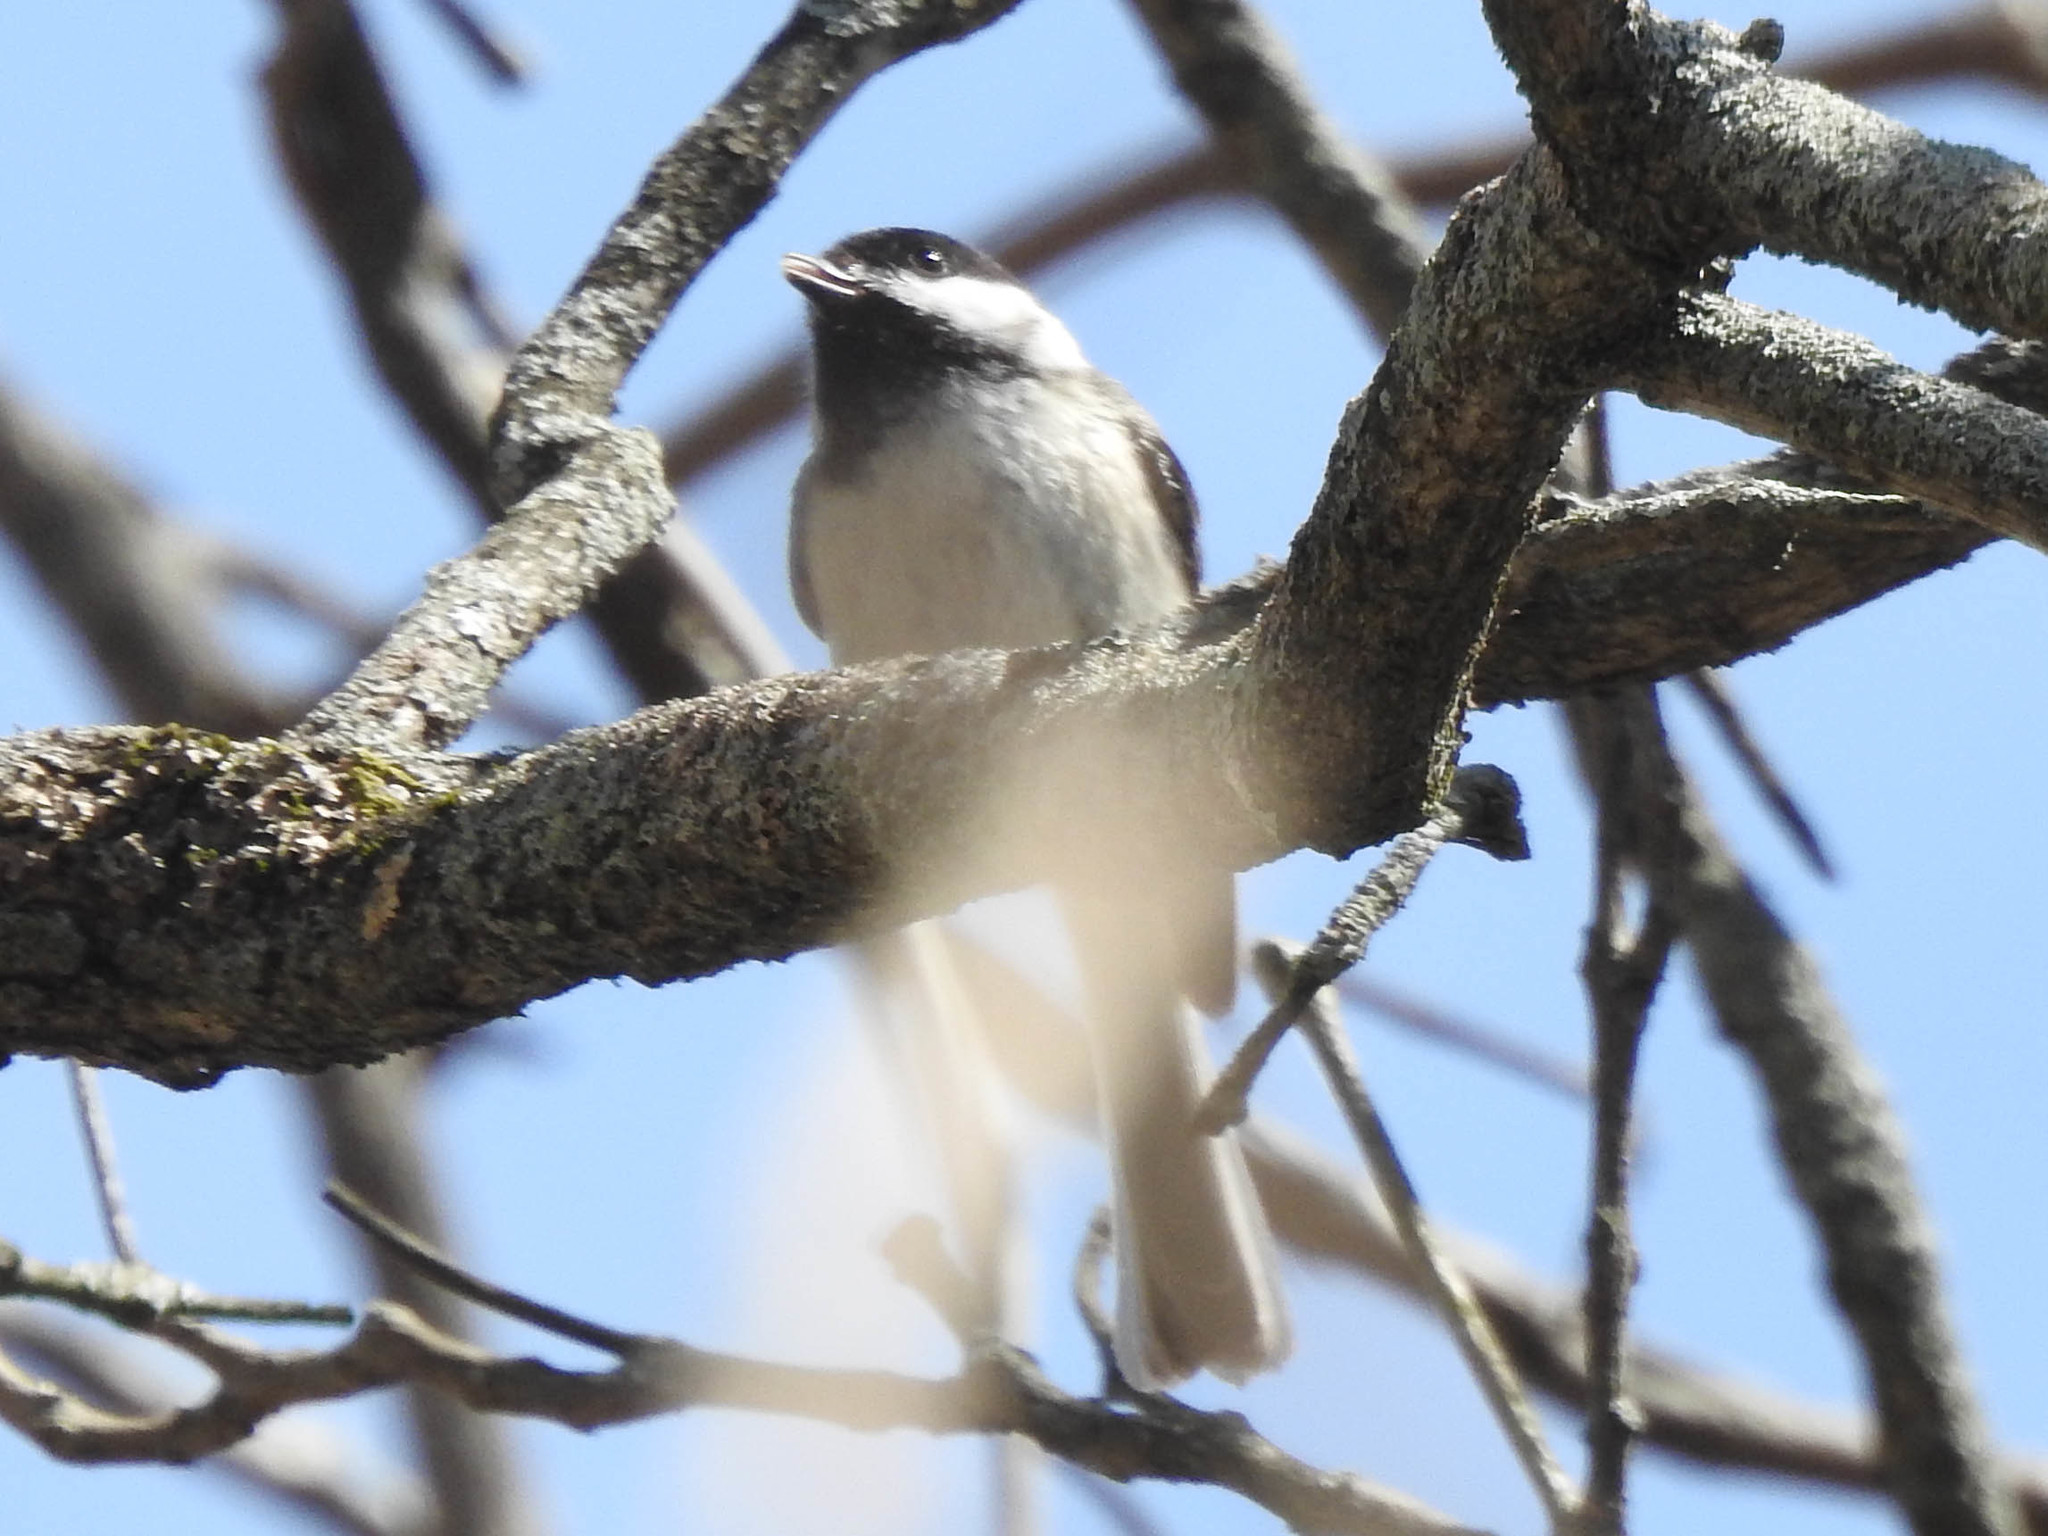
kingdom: Animalia
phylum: Chordata
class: Aves
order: Passeriformes
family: Paridae
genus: Poecile
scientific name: Poecile atricapillus
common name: Black-capped chickadee
